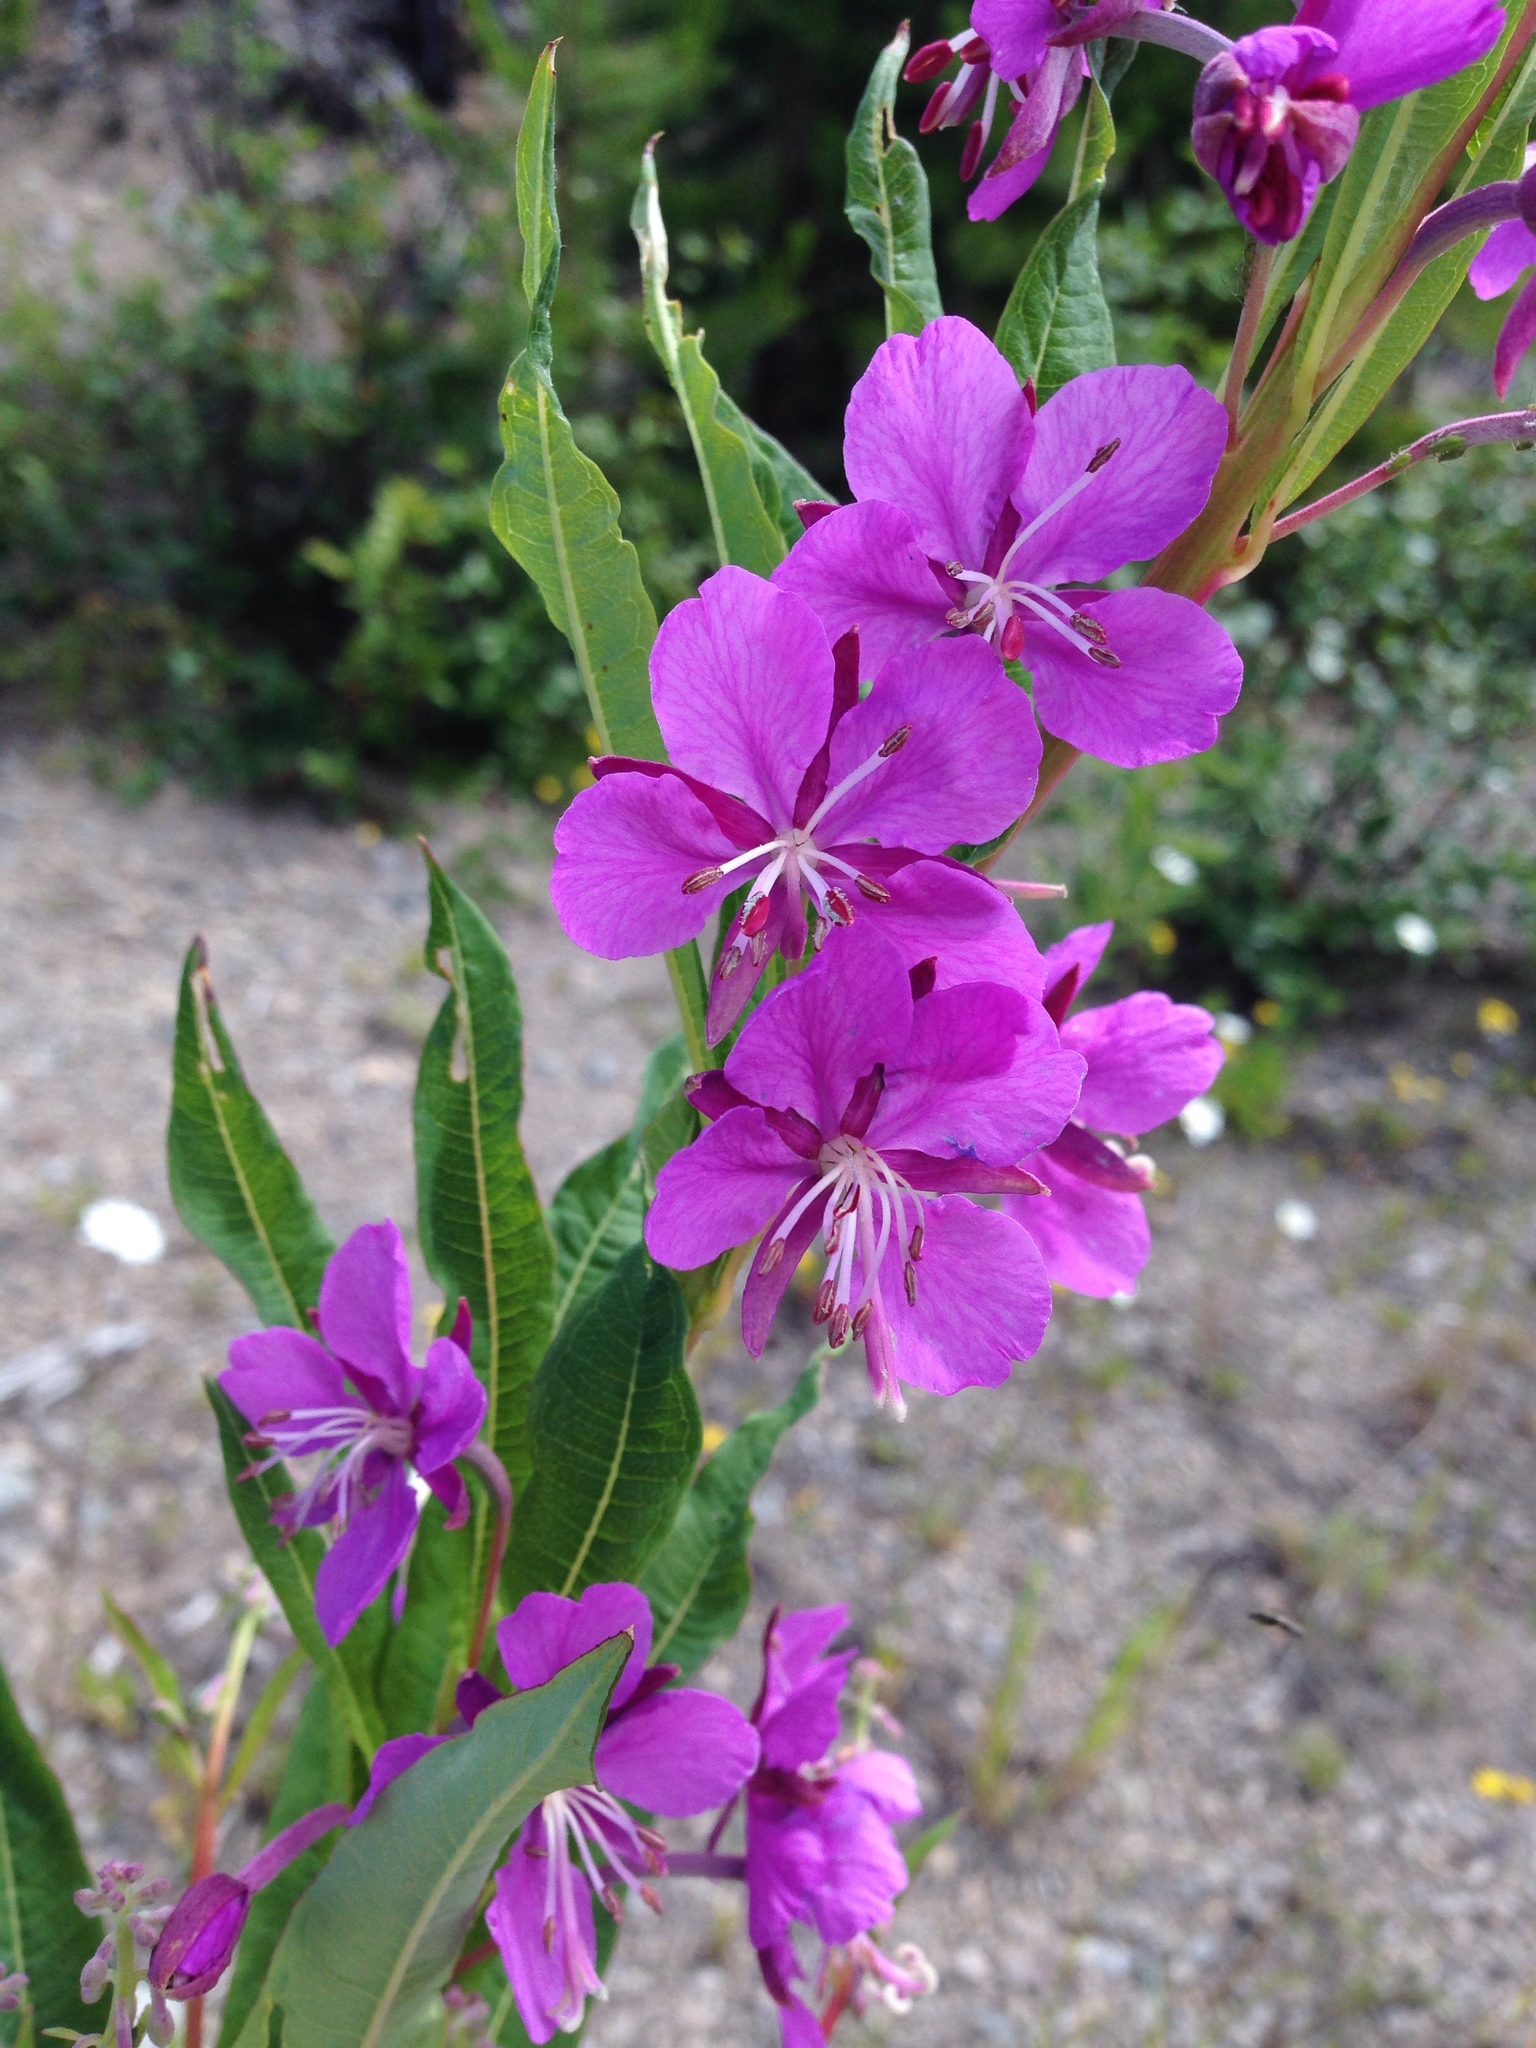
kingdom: Plantae
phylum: Tracheophyta
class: Magnoliopsida
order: Myrtales
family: Onagraceae
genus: Chamaenerion
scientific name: Chamaenerion angustifolium
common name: Fireweed
